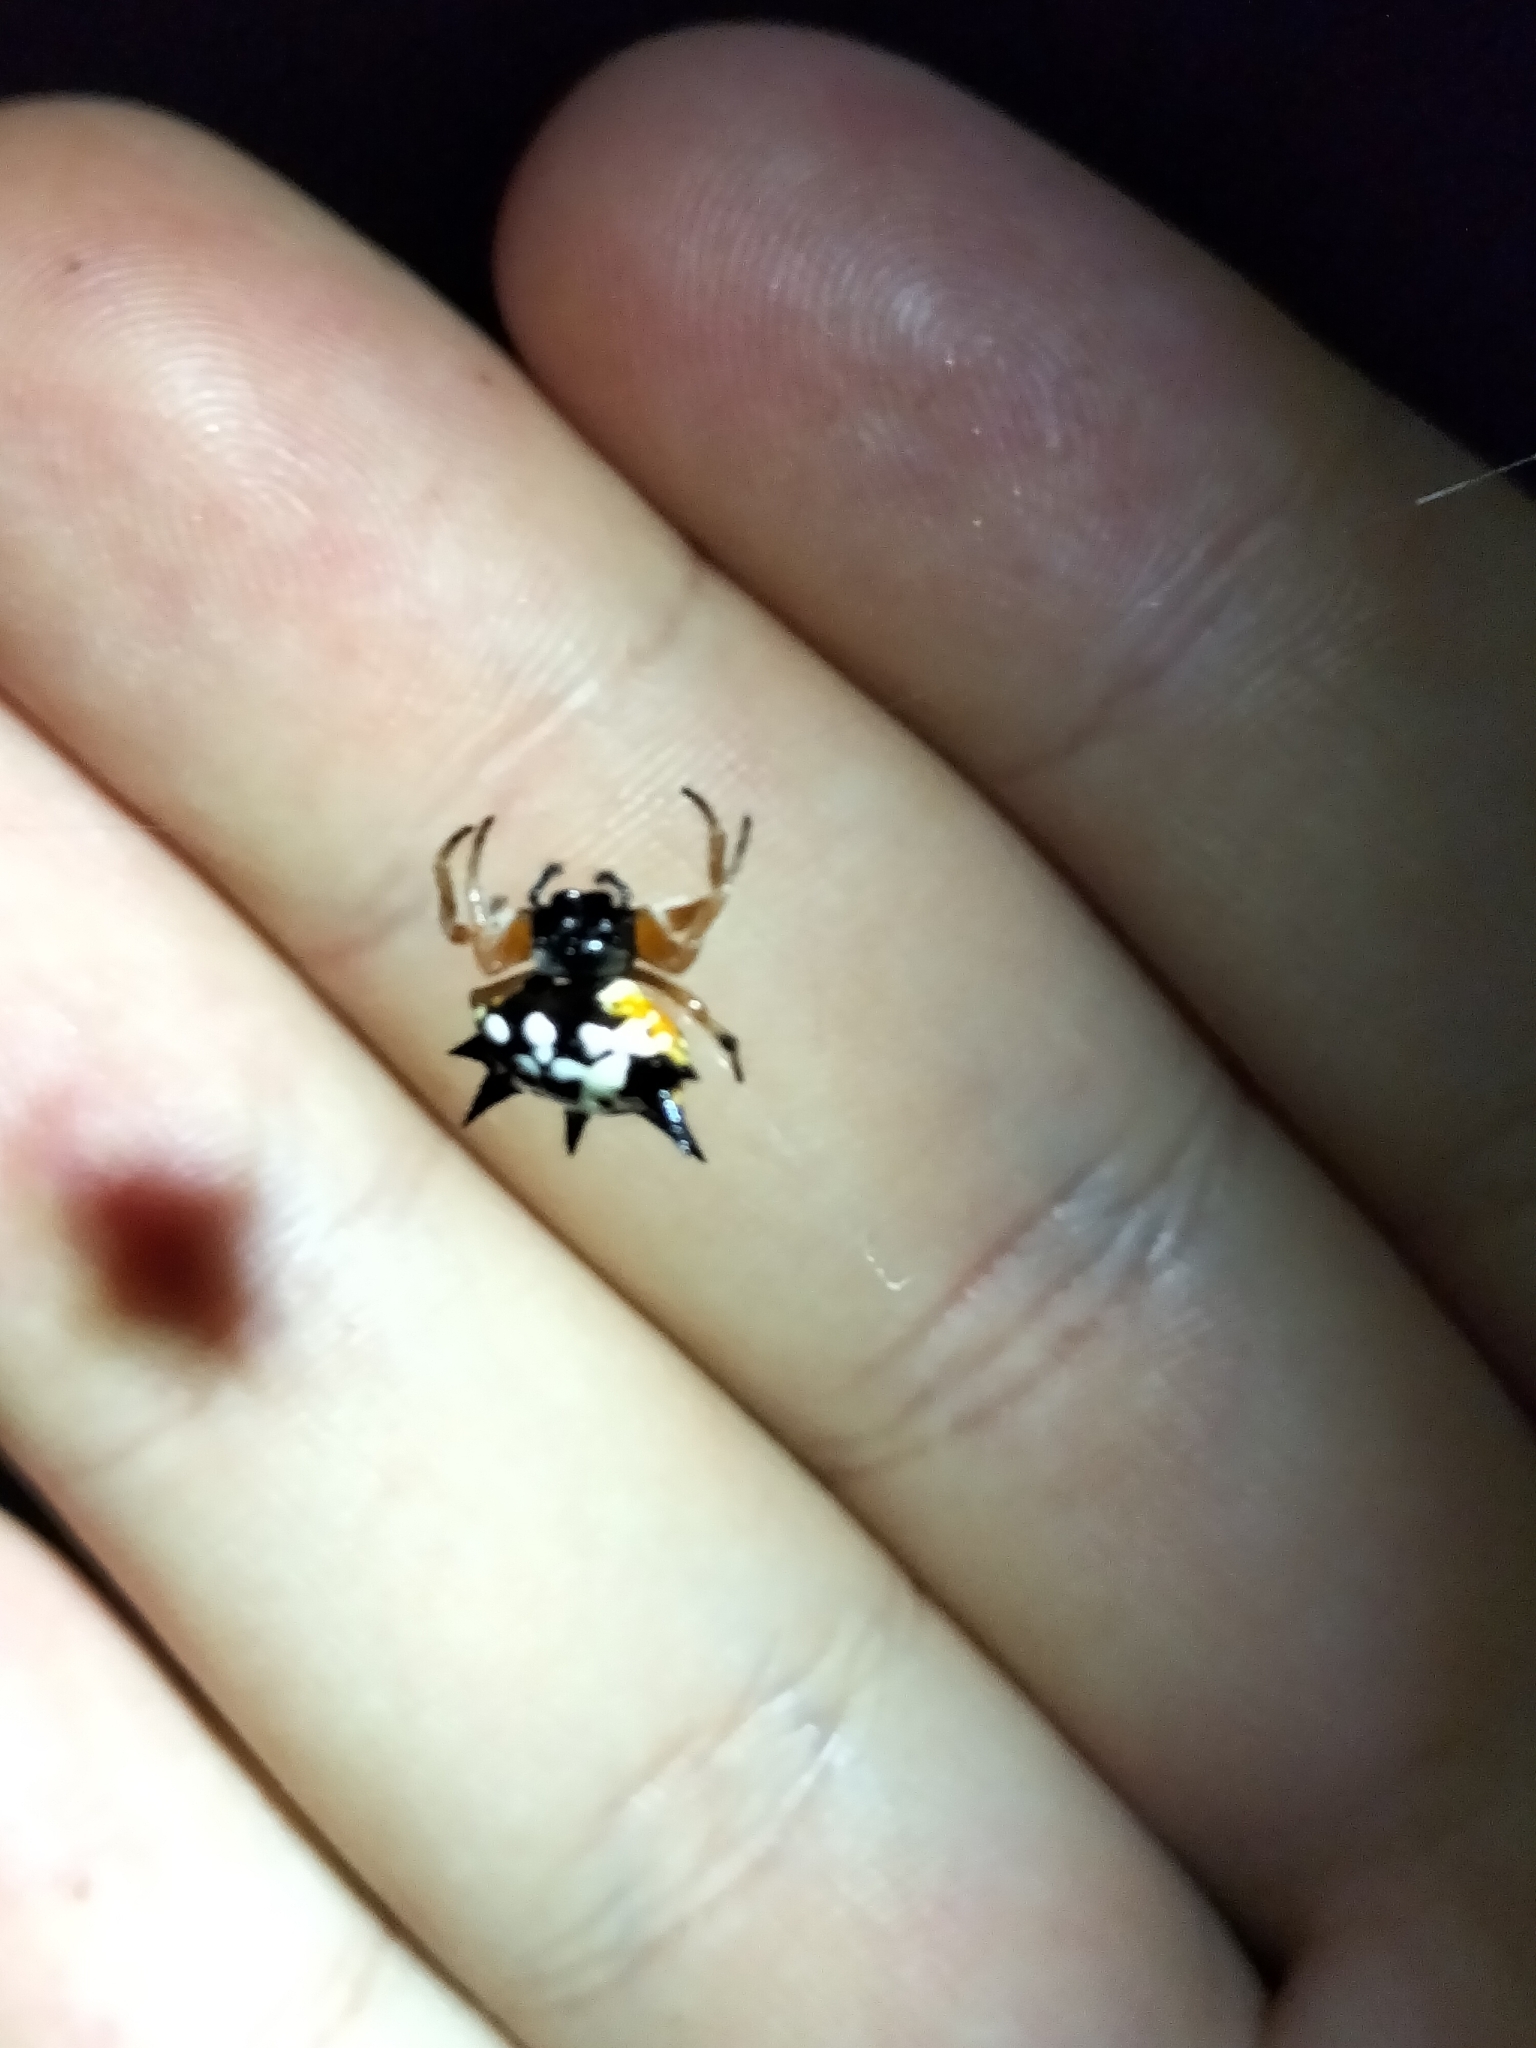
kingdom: Animalia
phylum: Arthropoda
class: Arachnida
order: Araneae
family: Araneidae
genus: Austracantha
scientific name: Austracantha minax
